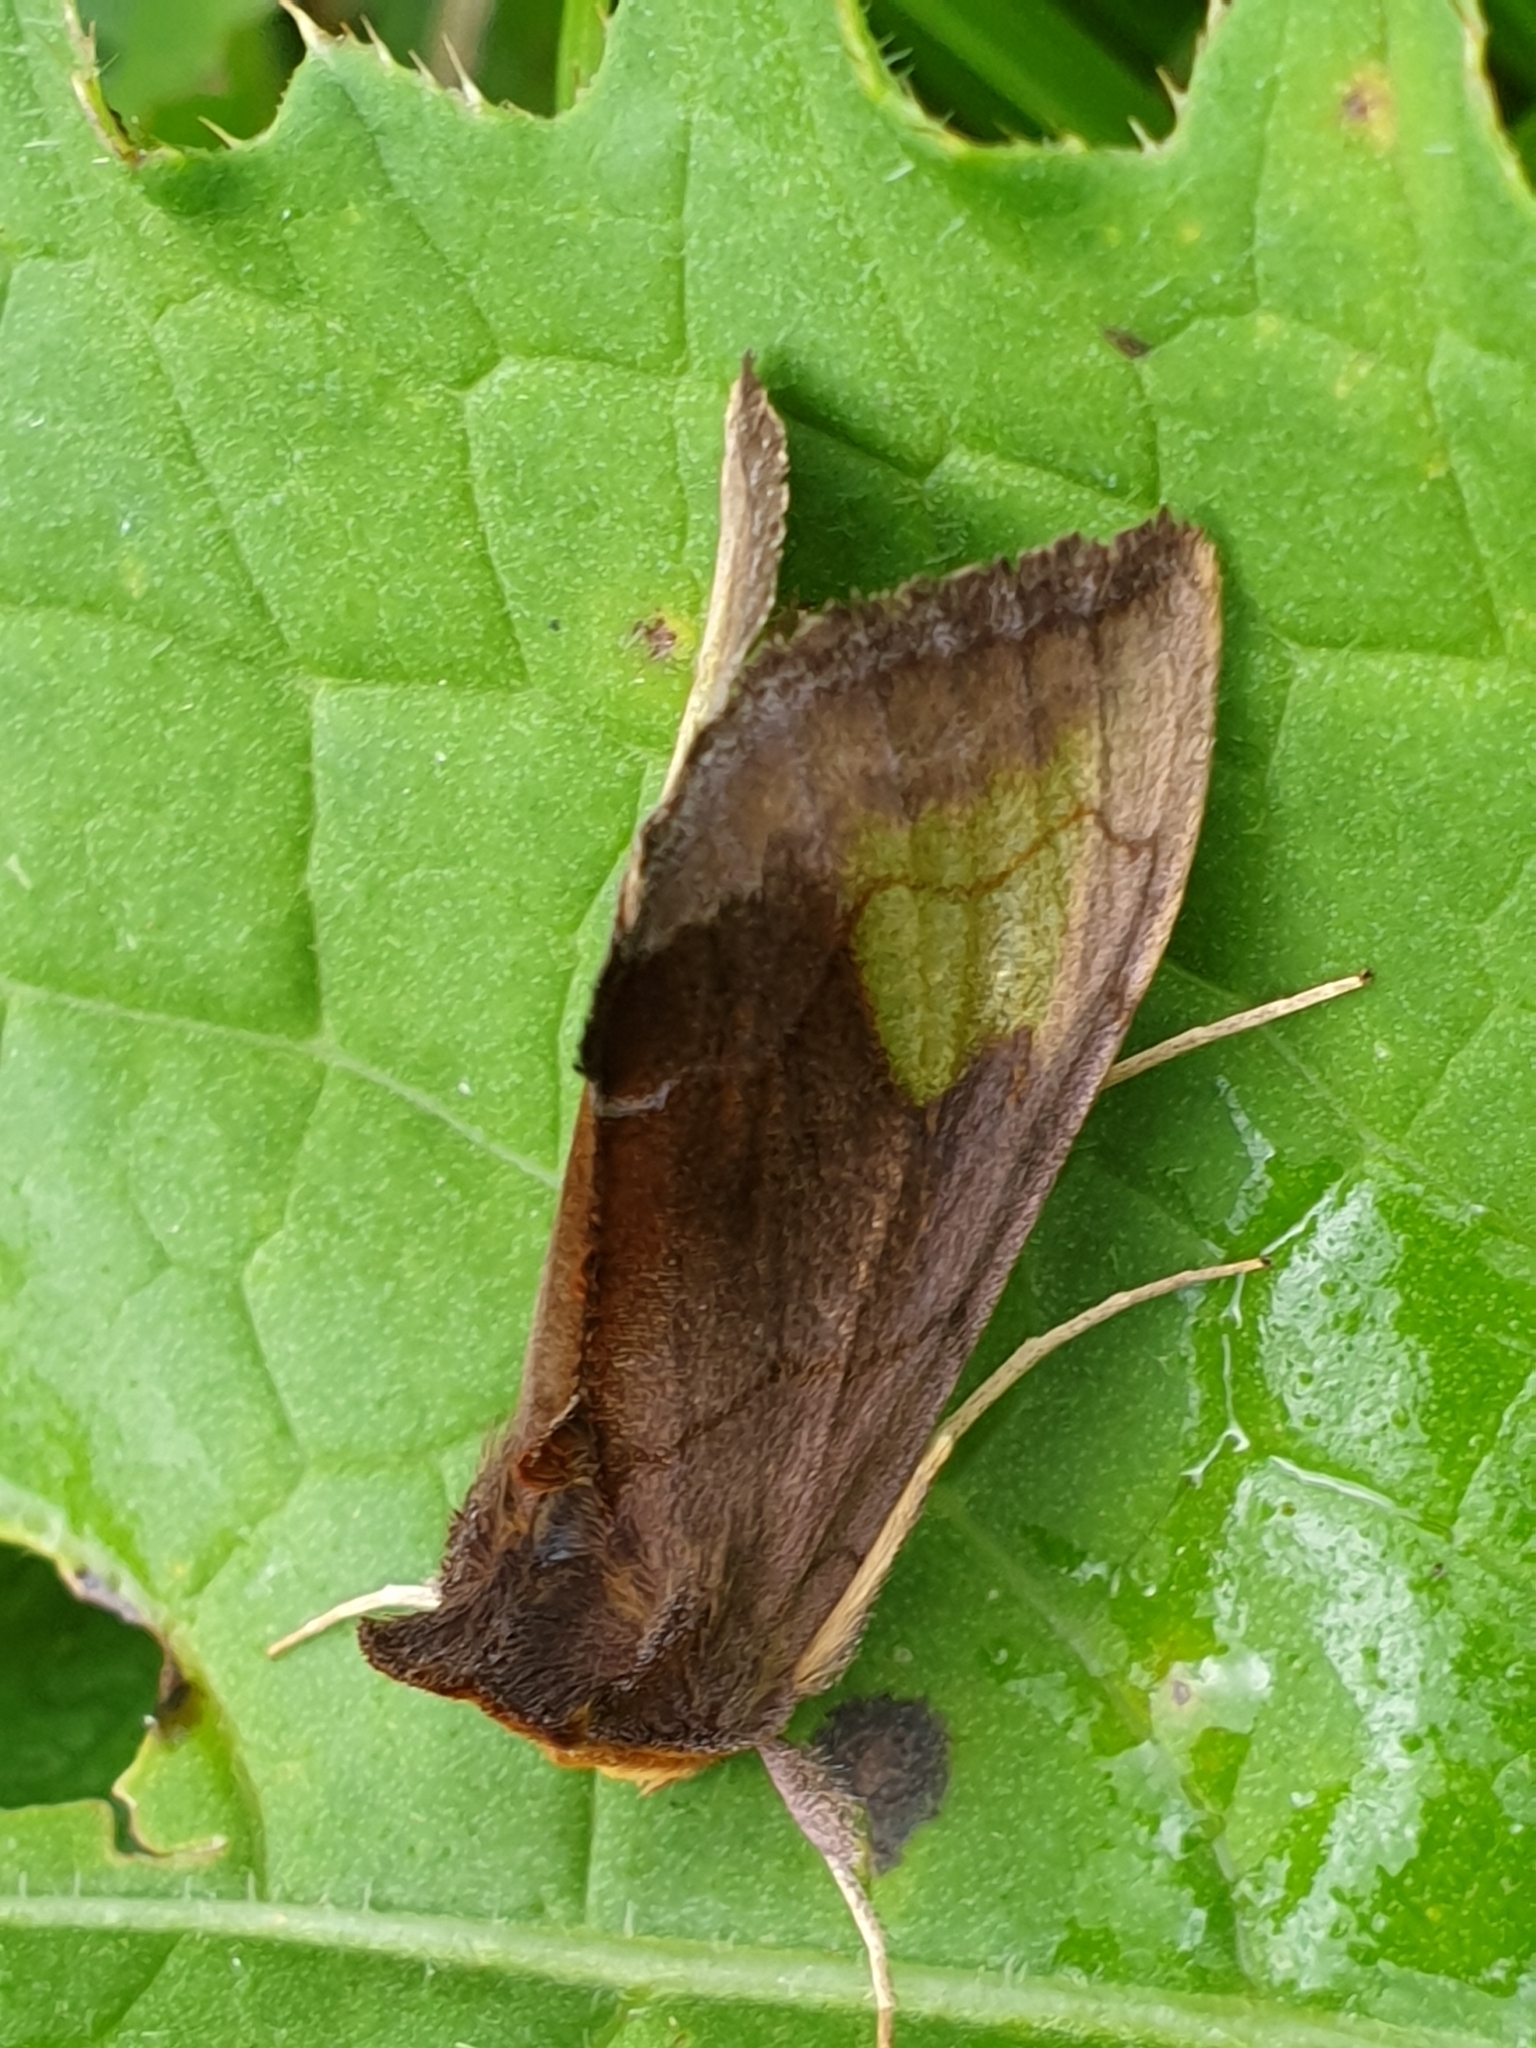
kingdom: Animalia
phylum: Arthropoda
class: Insecta
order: Lepidoptera
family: Noctuidae
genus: Diachrysia
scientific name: Diachrysia chryson
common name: Scarce burnished brass
